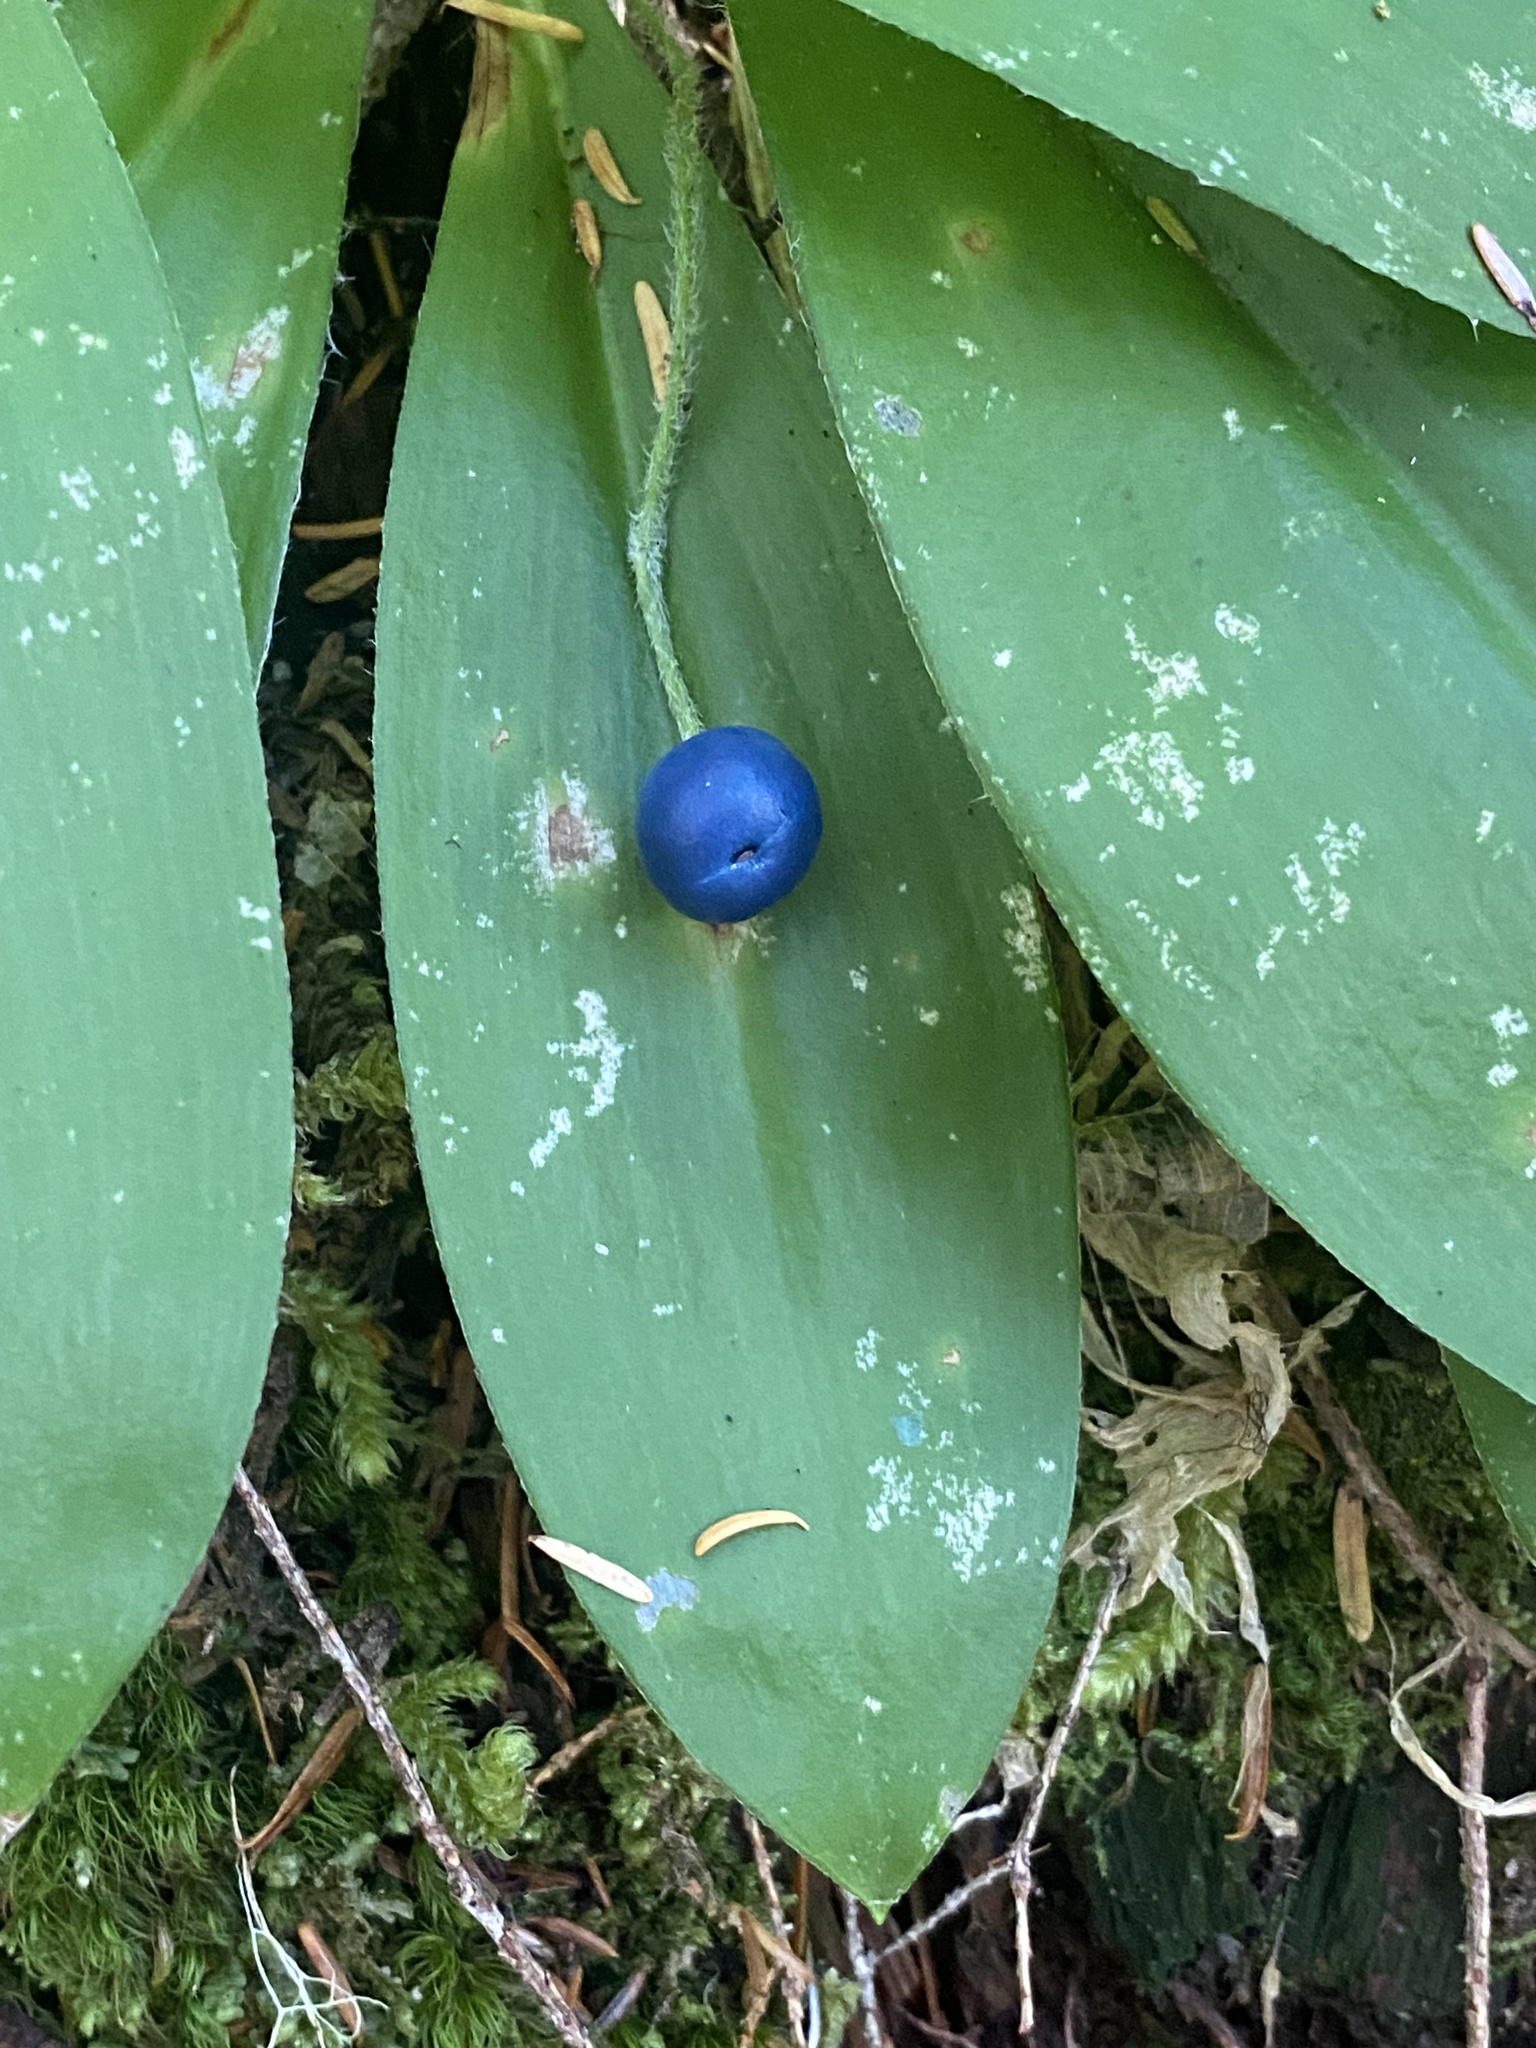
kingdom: Plantae
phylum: Tracheophyta
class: Liliopsida
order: Liliales
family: Liliaceae
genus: Clintonia
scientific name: Clintonia uniflora
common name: Queen's cup
